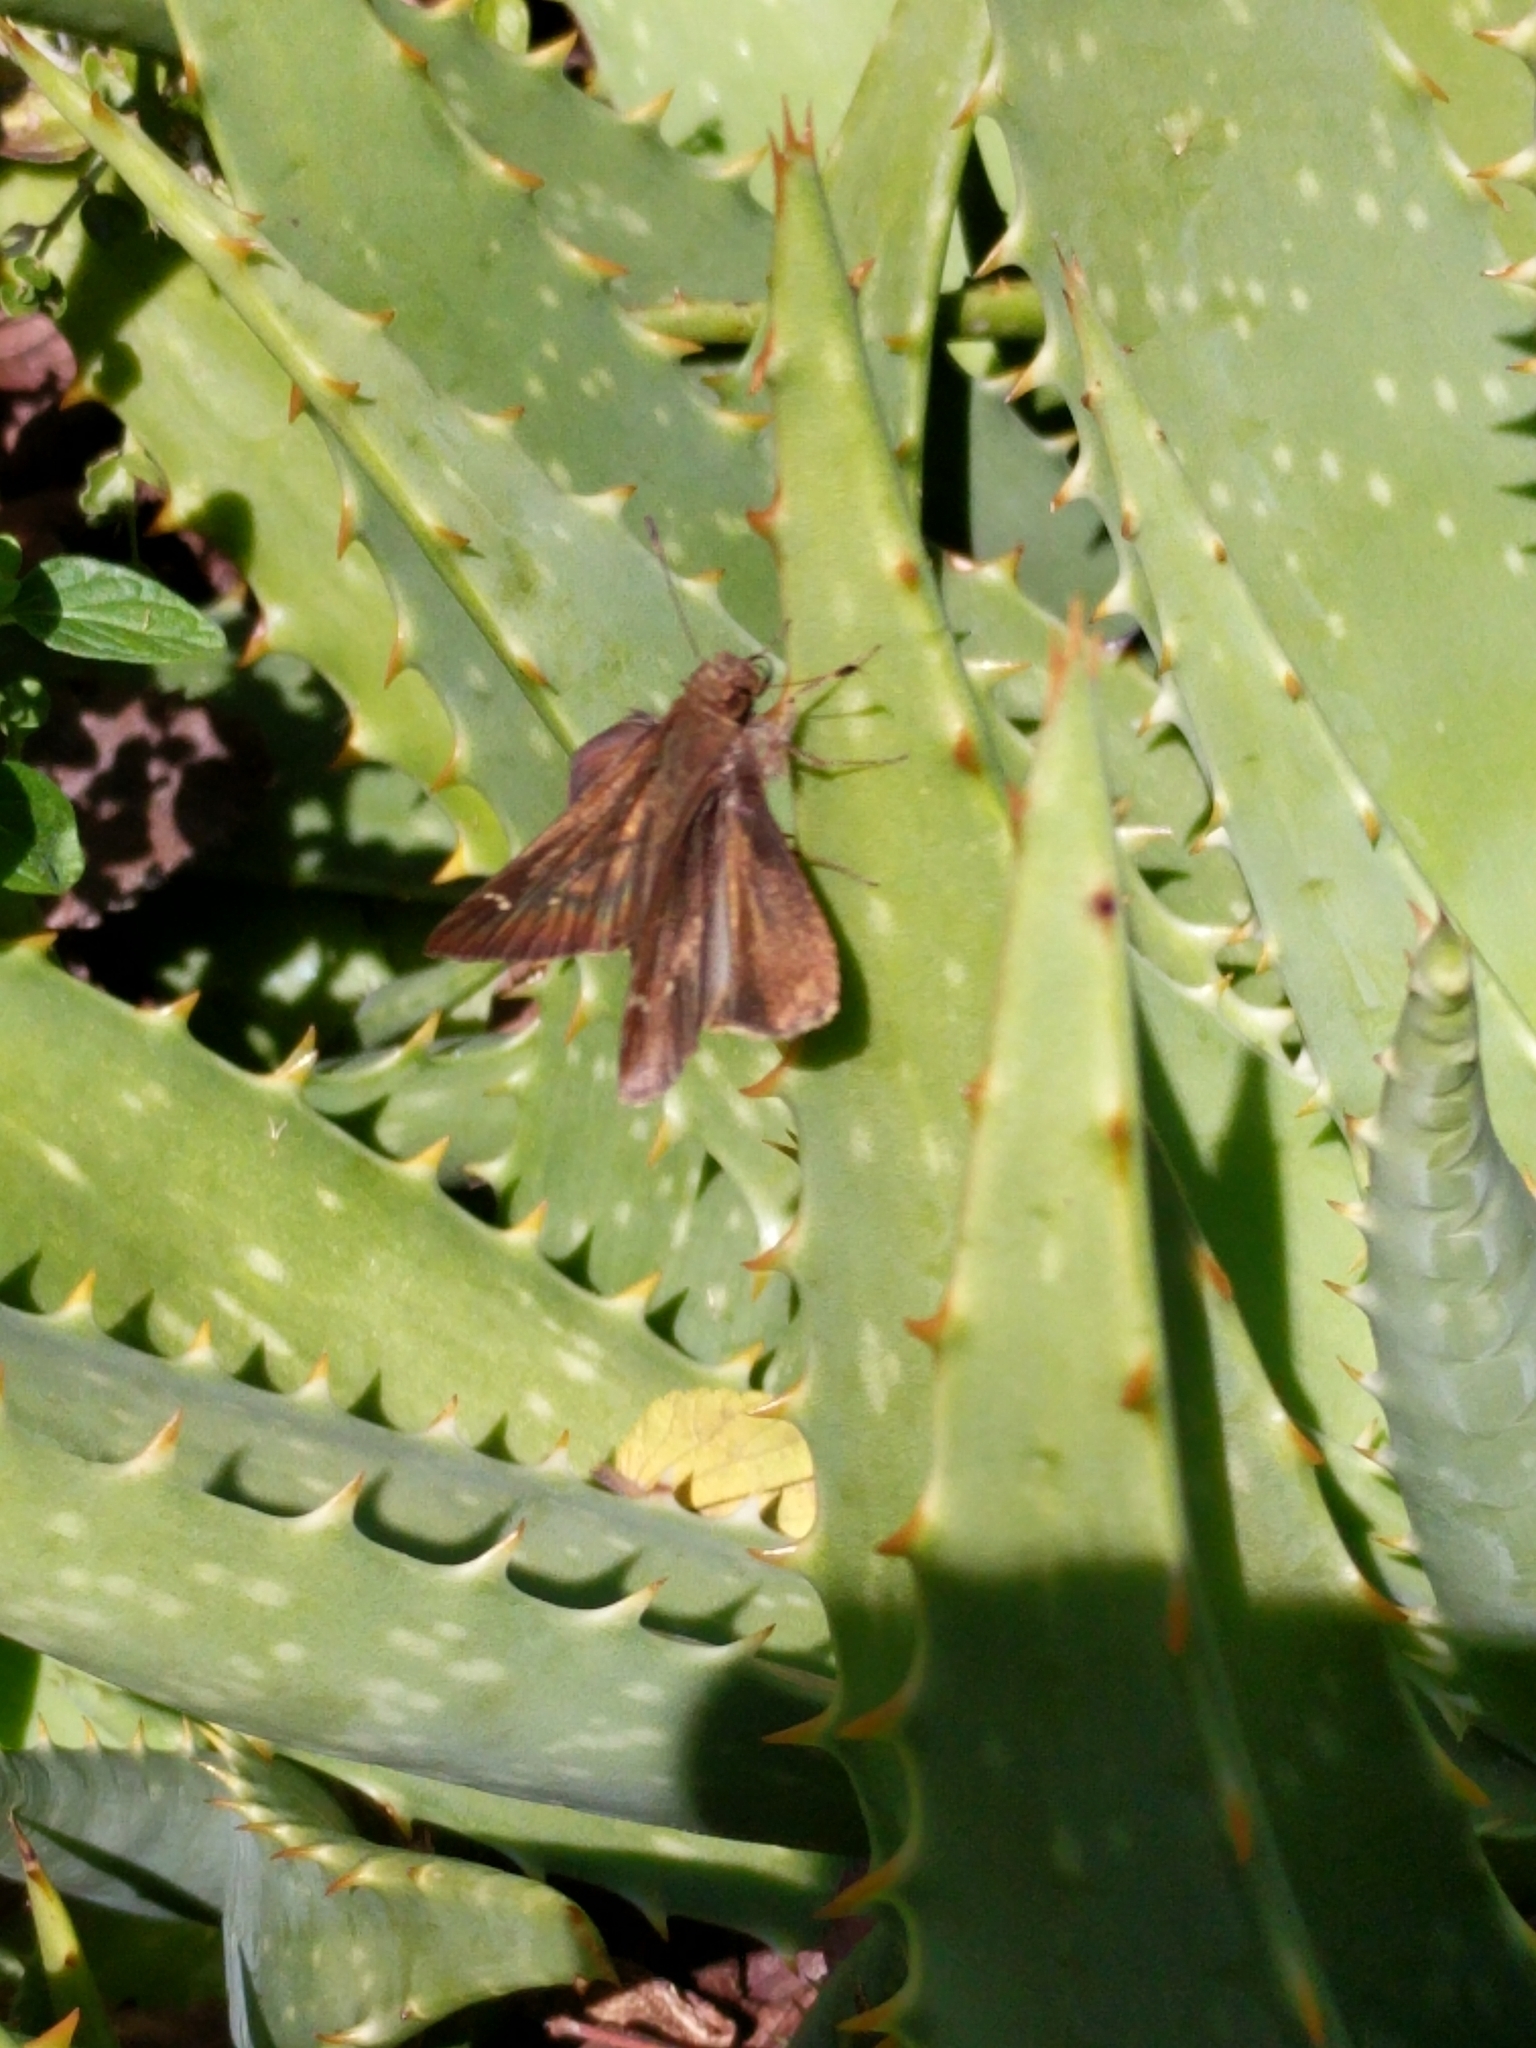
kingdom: Animalia
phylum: Arthropoda
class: Insecta
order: Lepidoptera
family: Hesperiidae
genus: Lerema
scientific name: Lerema accius
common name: Clouded skipper
